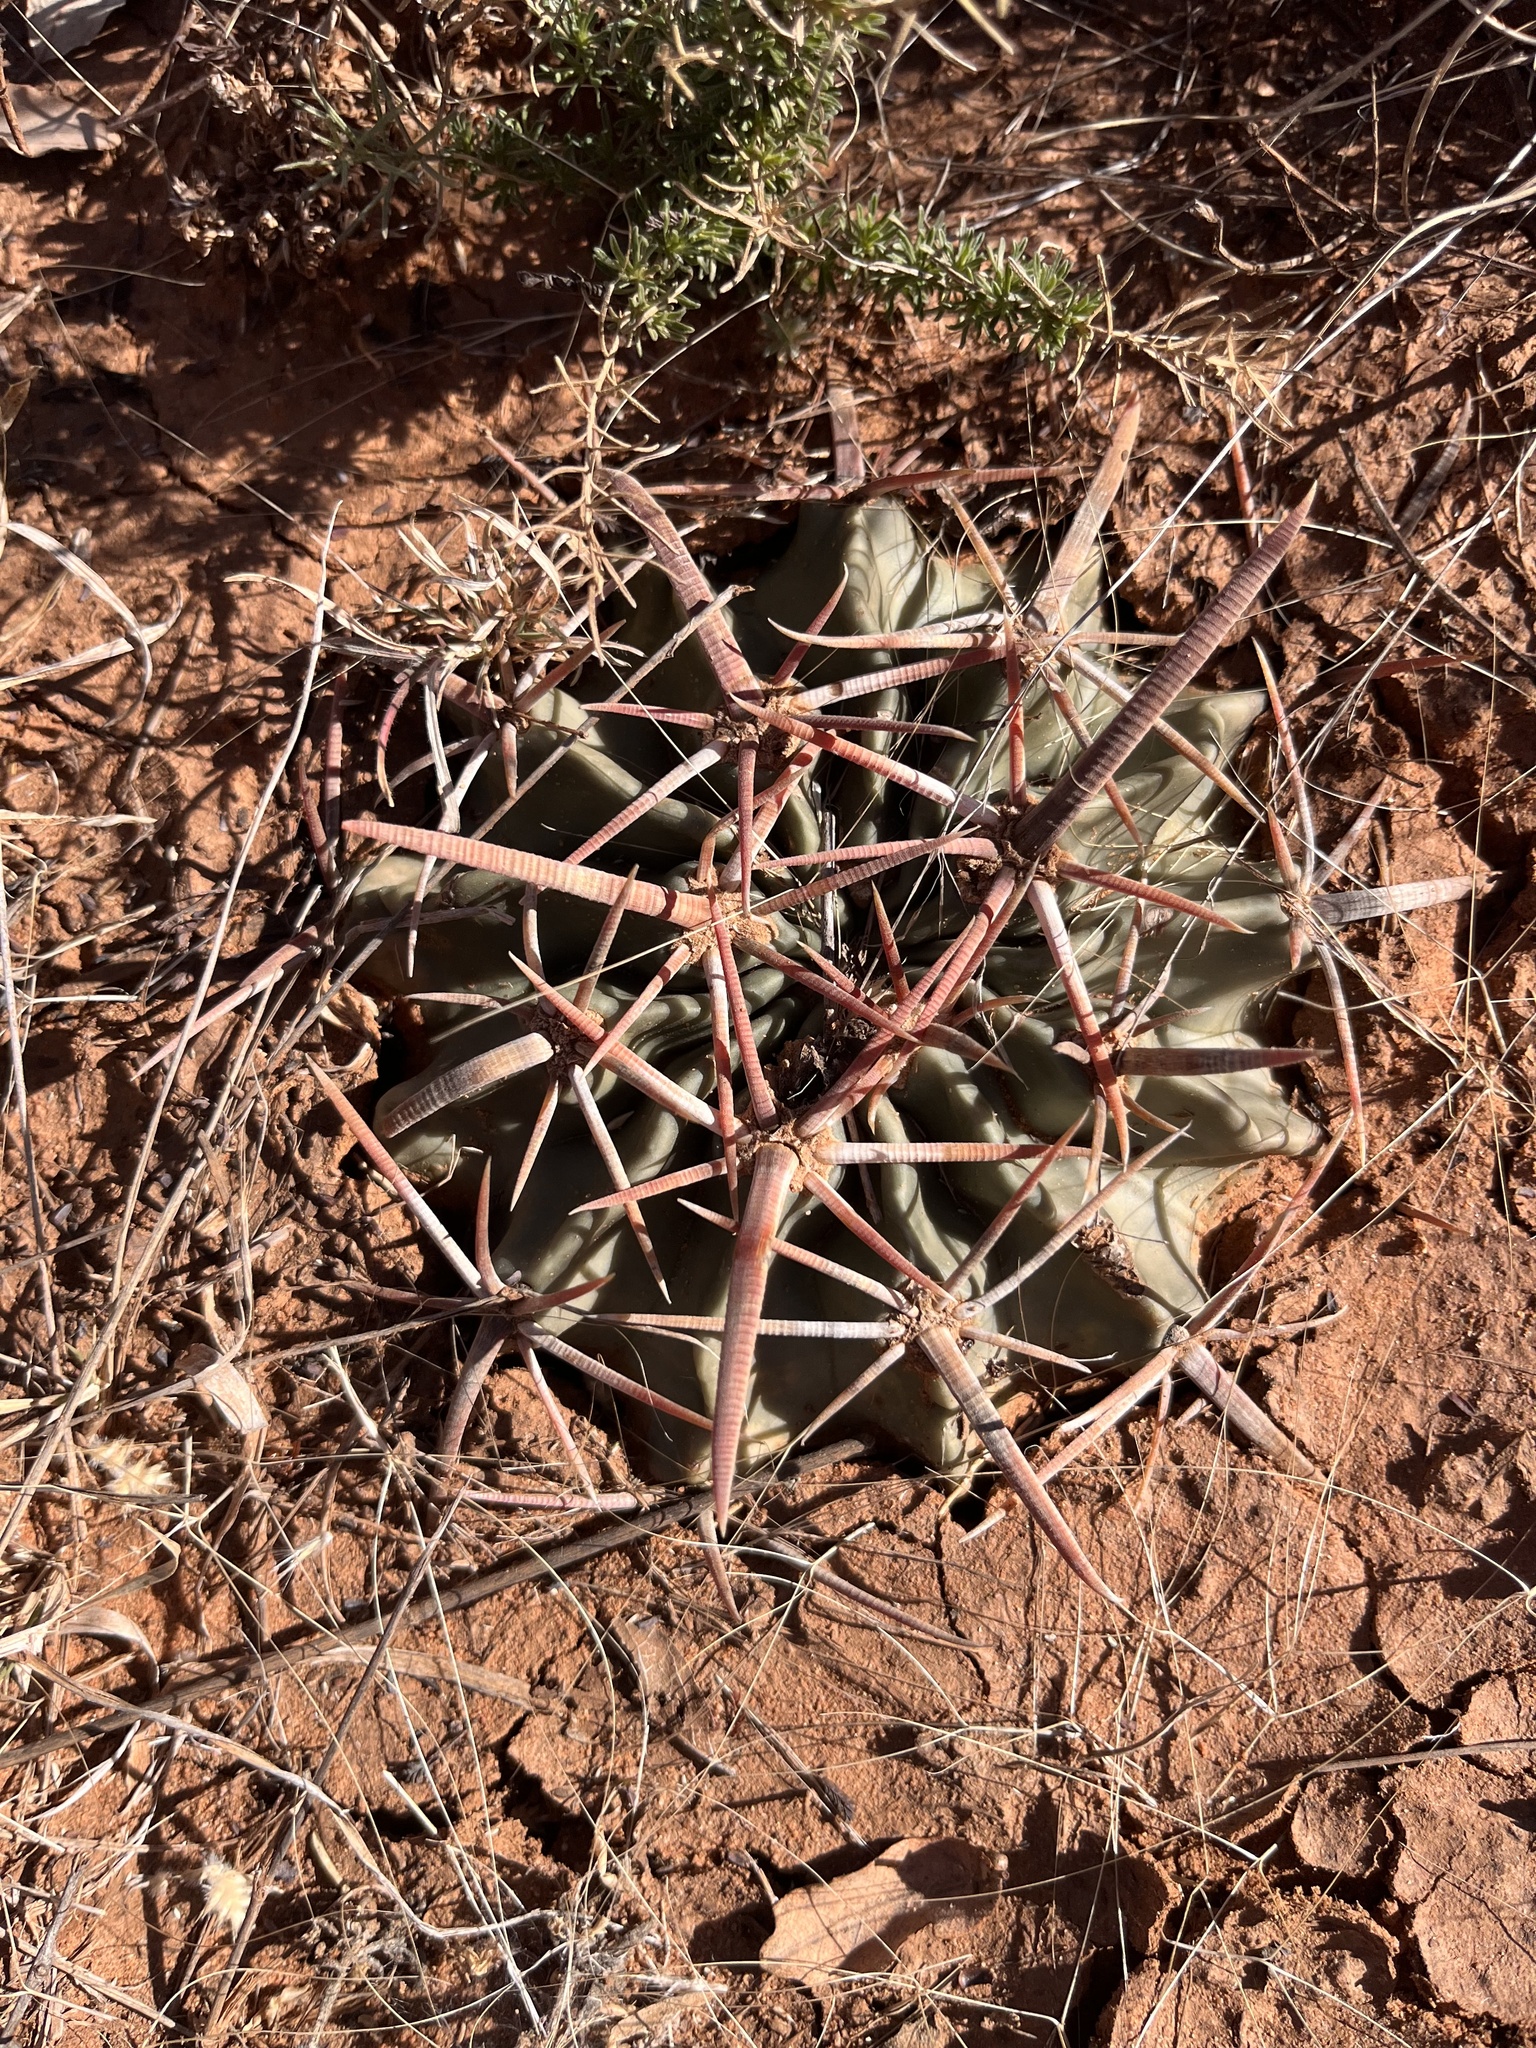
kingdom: Plantae
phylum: Tracheophyta
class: Magnoliopsida
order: Caryophyllales
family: Cactaceae
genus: Echinocactus
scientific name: Echinocactus texensis
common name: Devil's pincushion
